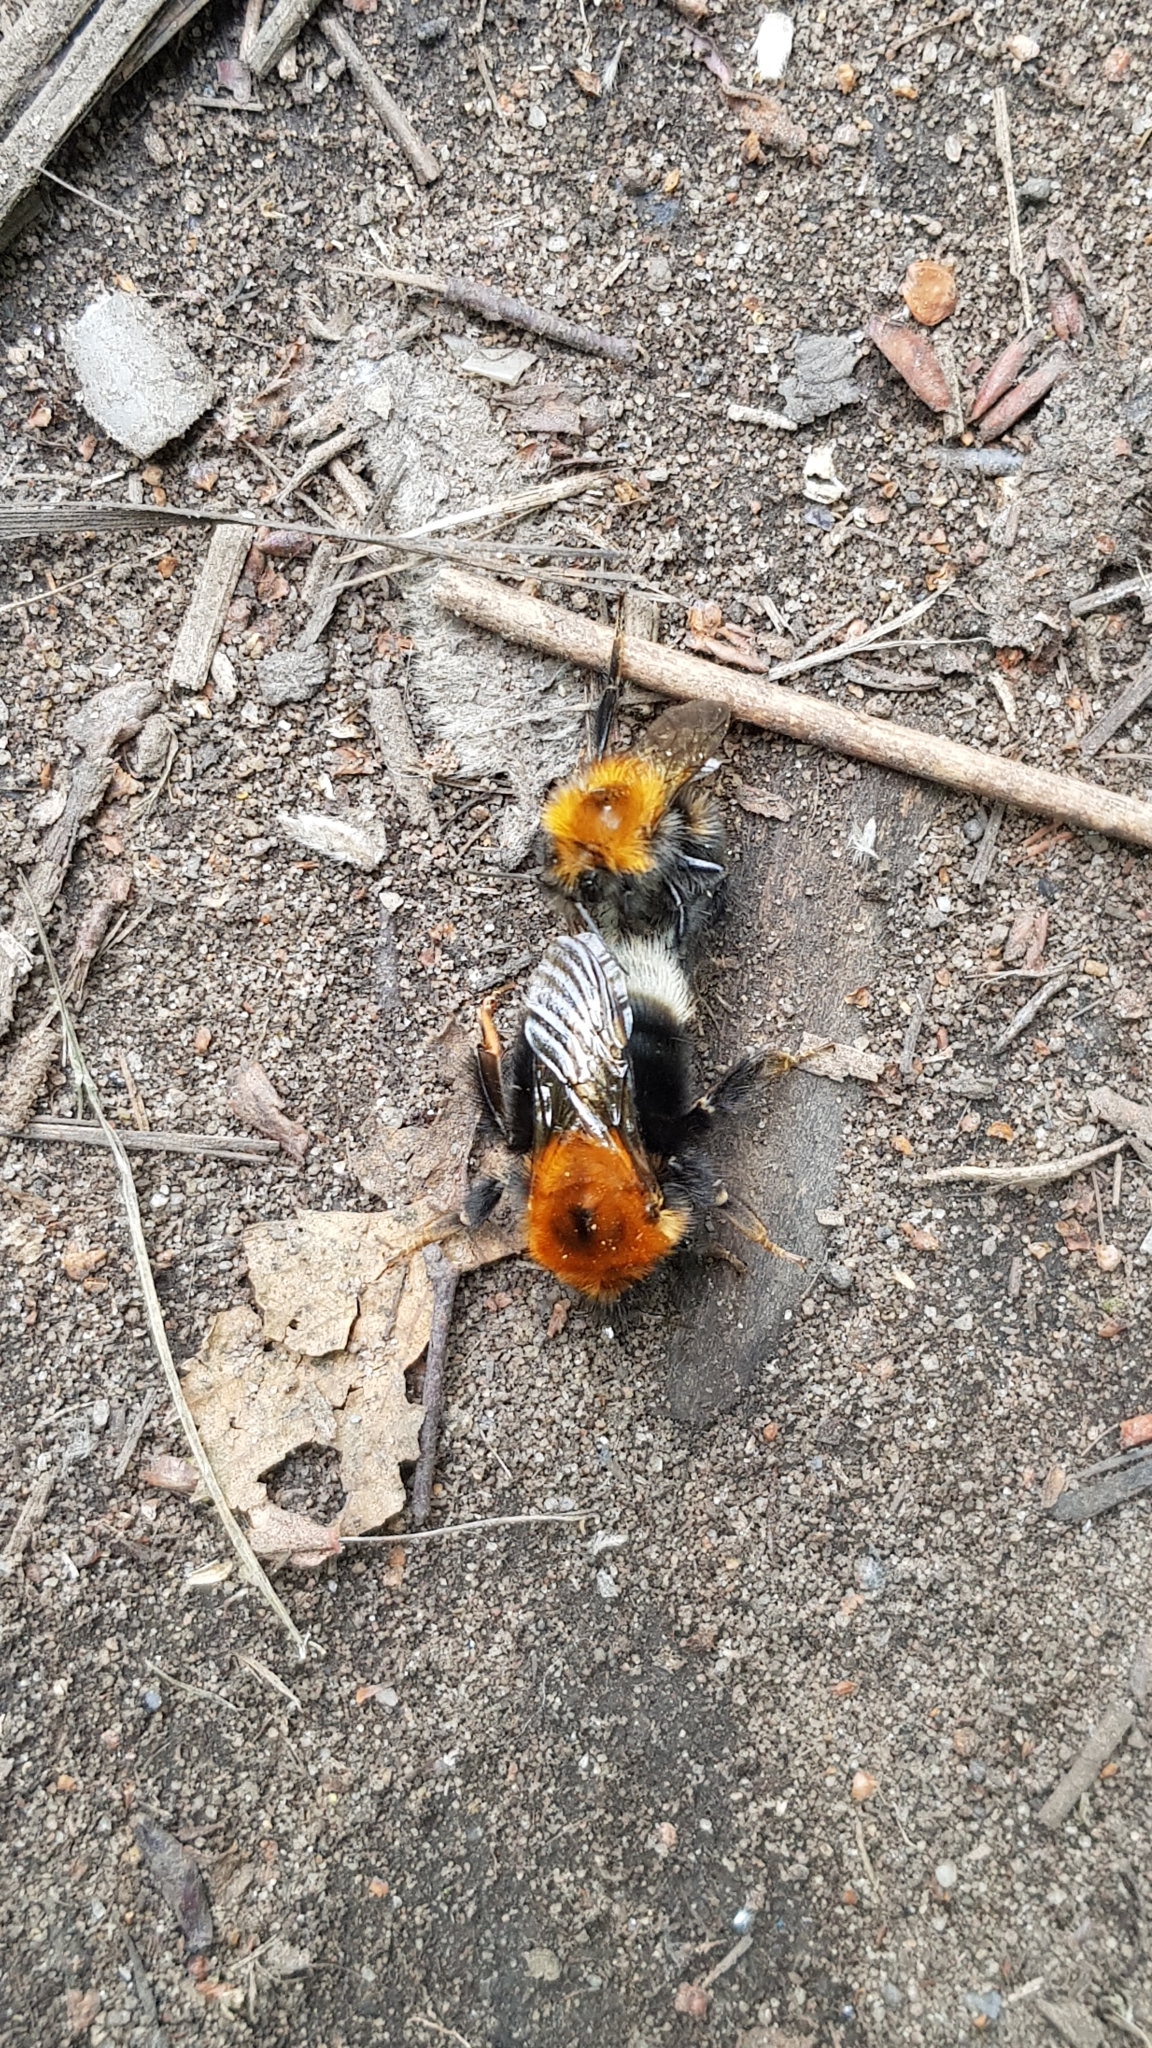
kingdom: Animalia
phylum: Arthropoda
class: Insecta
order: Hymenoptera
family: Apidae
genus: Bombus
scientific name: Bombus hypnorum
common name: New garden bumblebee
